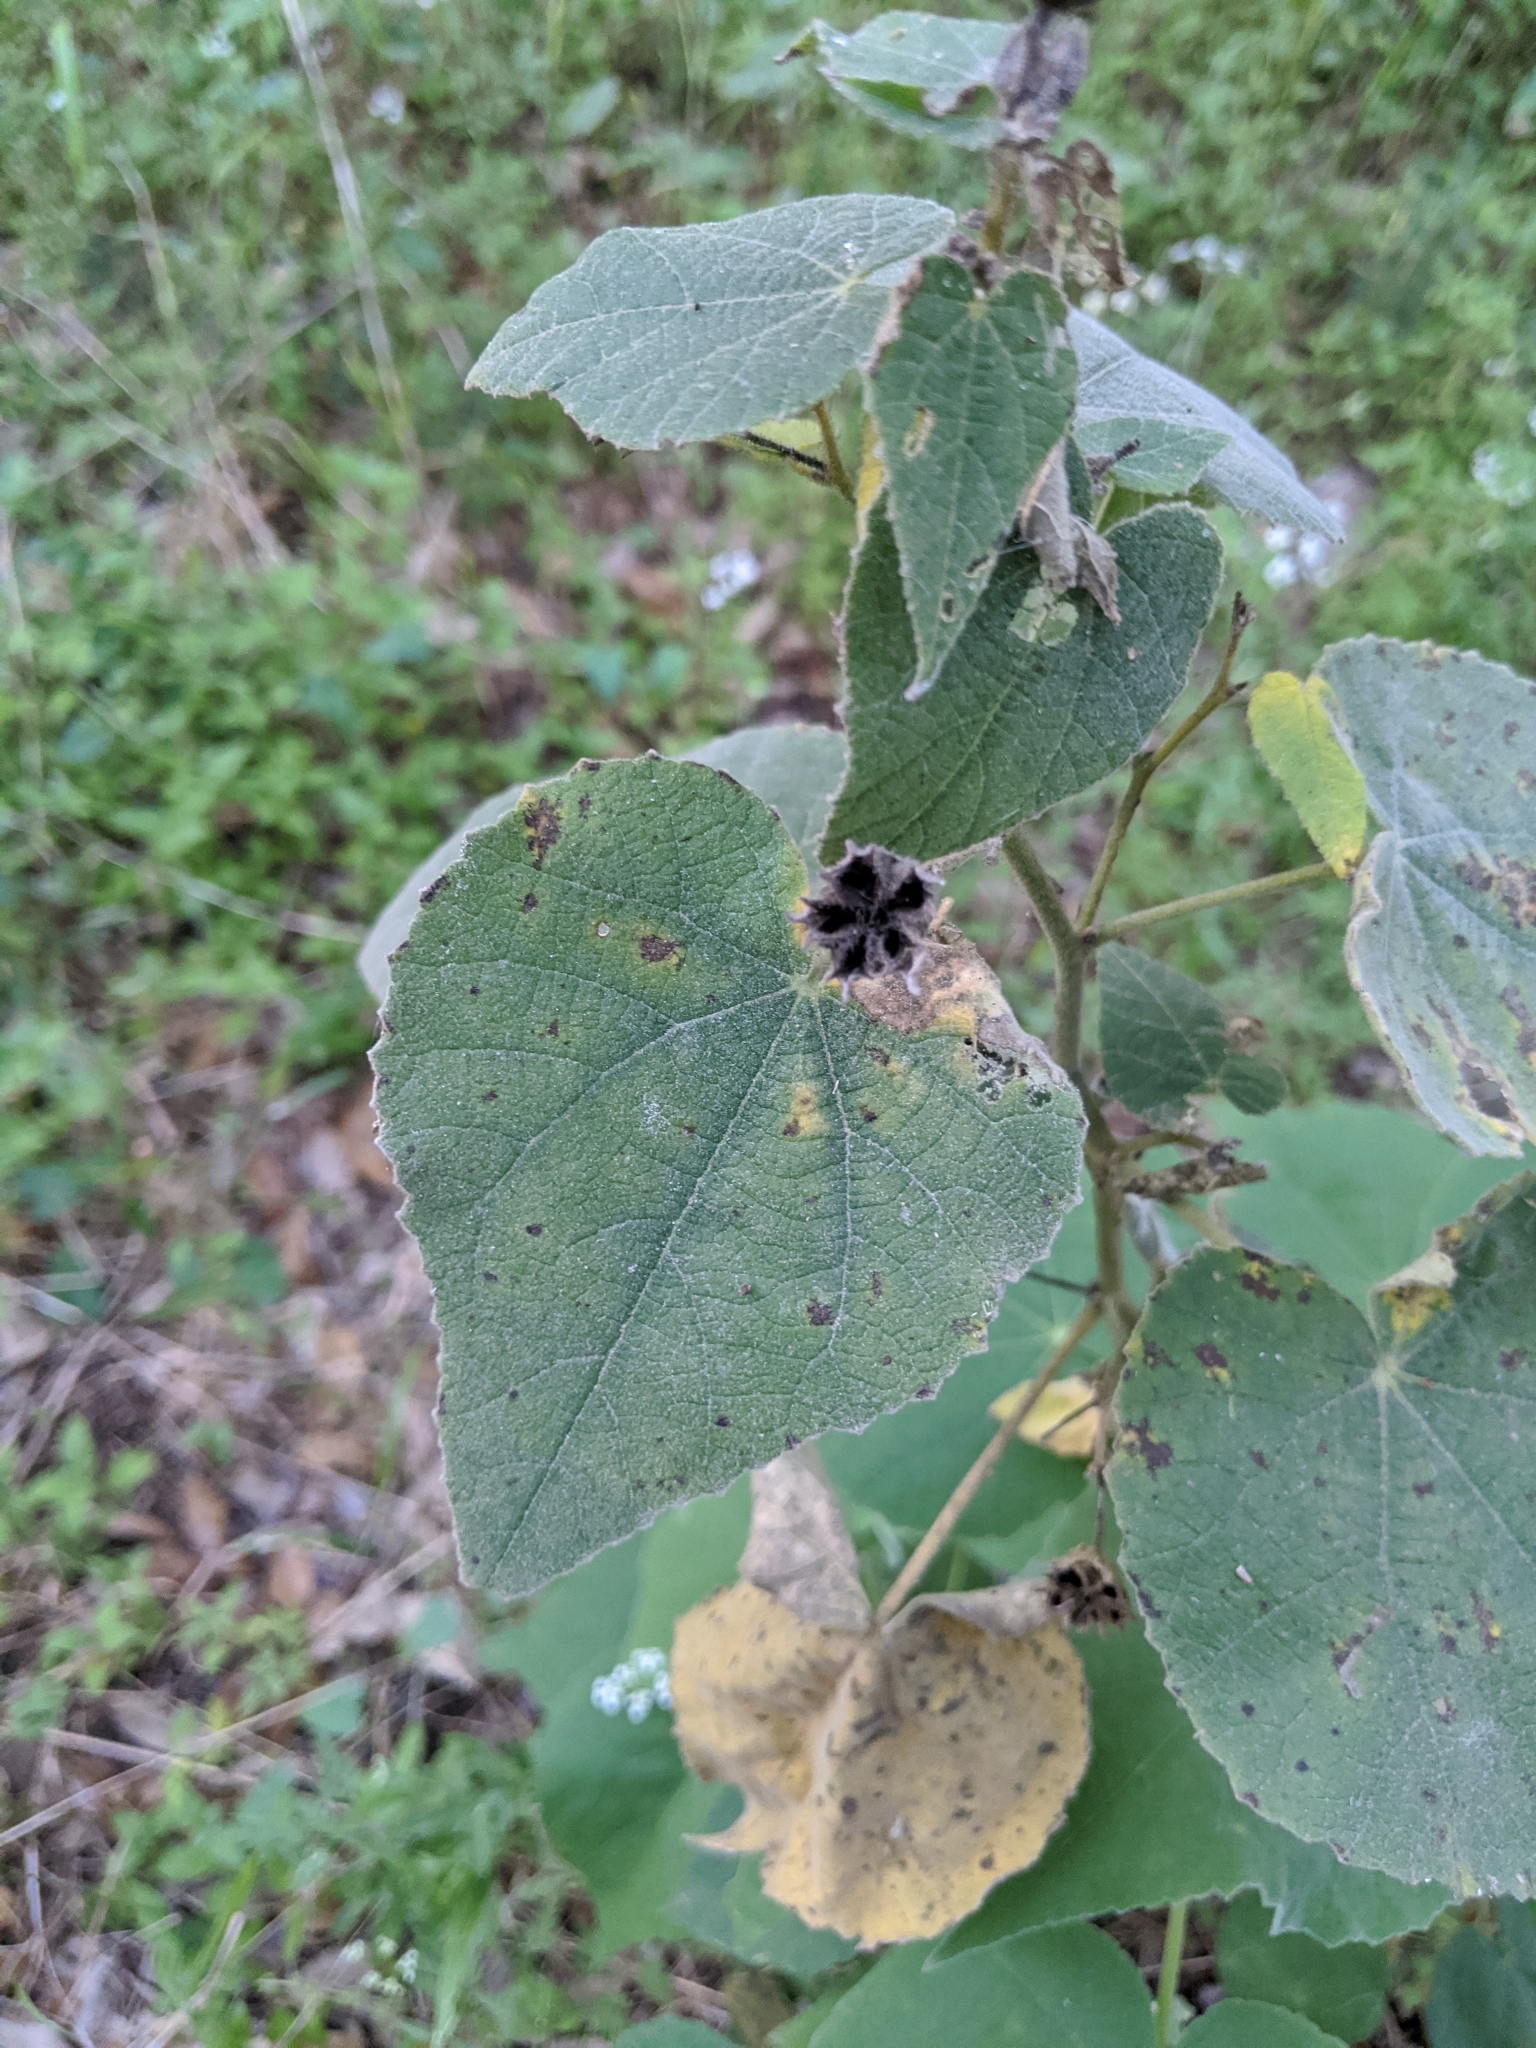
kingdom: Plantae
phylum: Tracheophyta
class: Magnoliopsida
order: Malvales
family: Malvaceae
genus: Allowissadula
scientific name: Allowissadula holosericea
